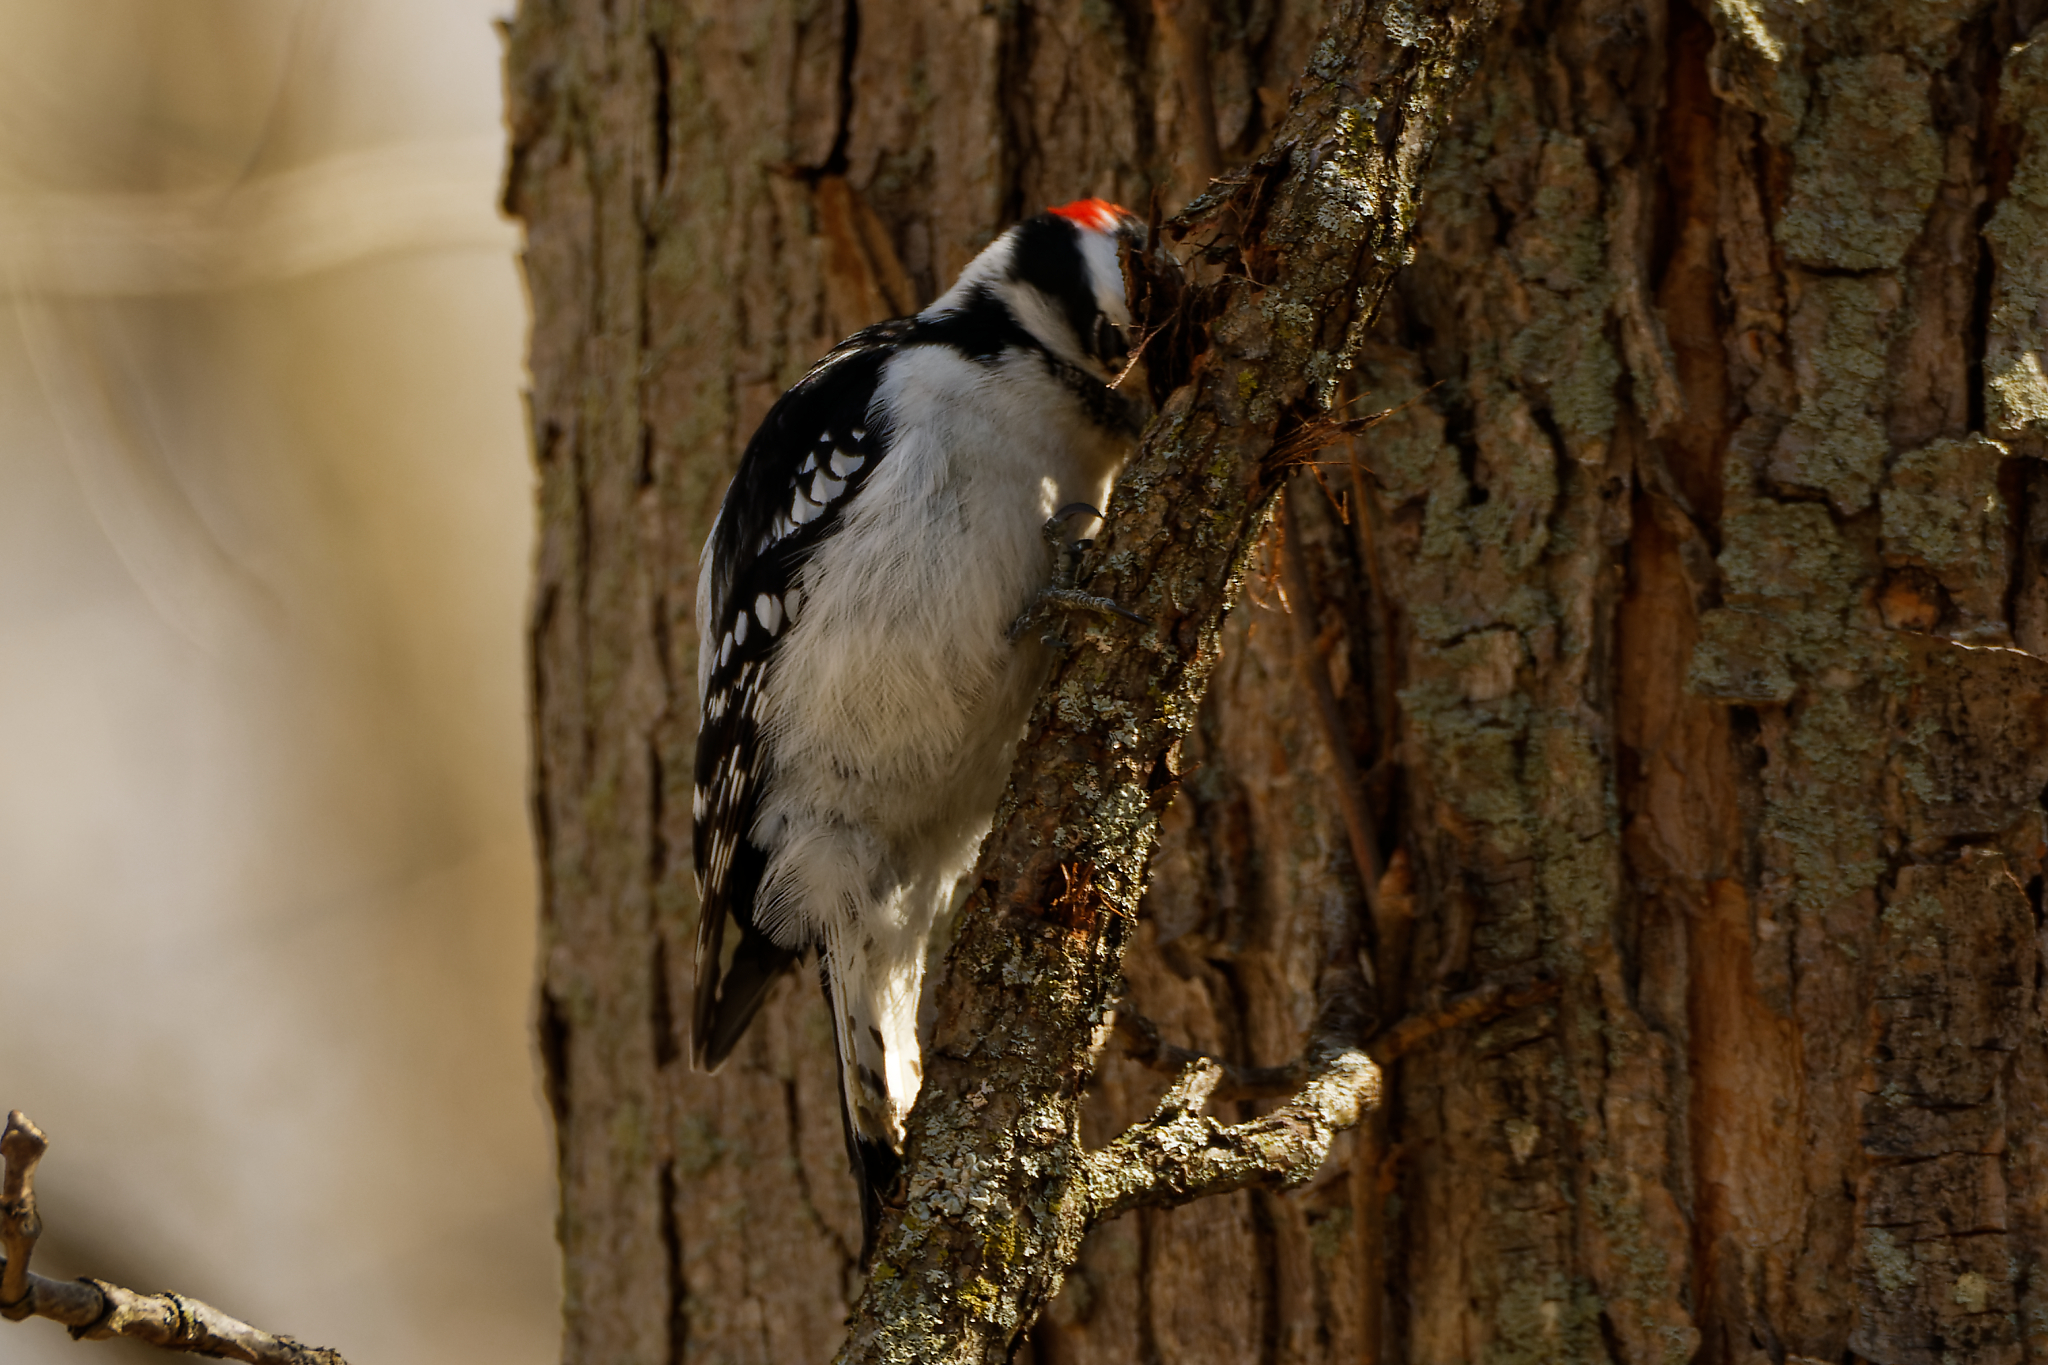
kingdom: Animalia
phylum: Chordata
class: Aves
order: Piciformes
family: Picidae
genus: Dryobates
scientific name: Dryobates pubescens
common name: Downy woodpecker
